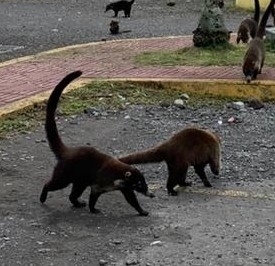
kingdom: Animalia
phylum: Chordata
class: Mammalia
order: Carnivora
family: Procyonidae
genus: Nasua
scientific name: Nasua narica
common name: White-nosed coati
